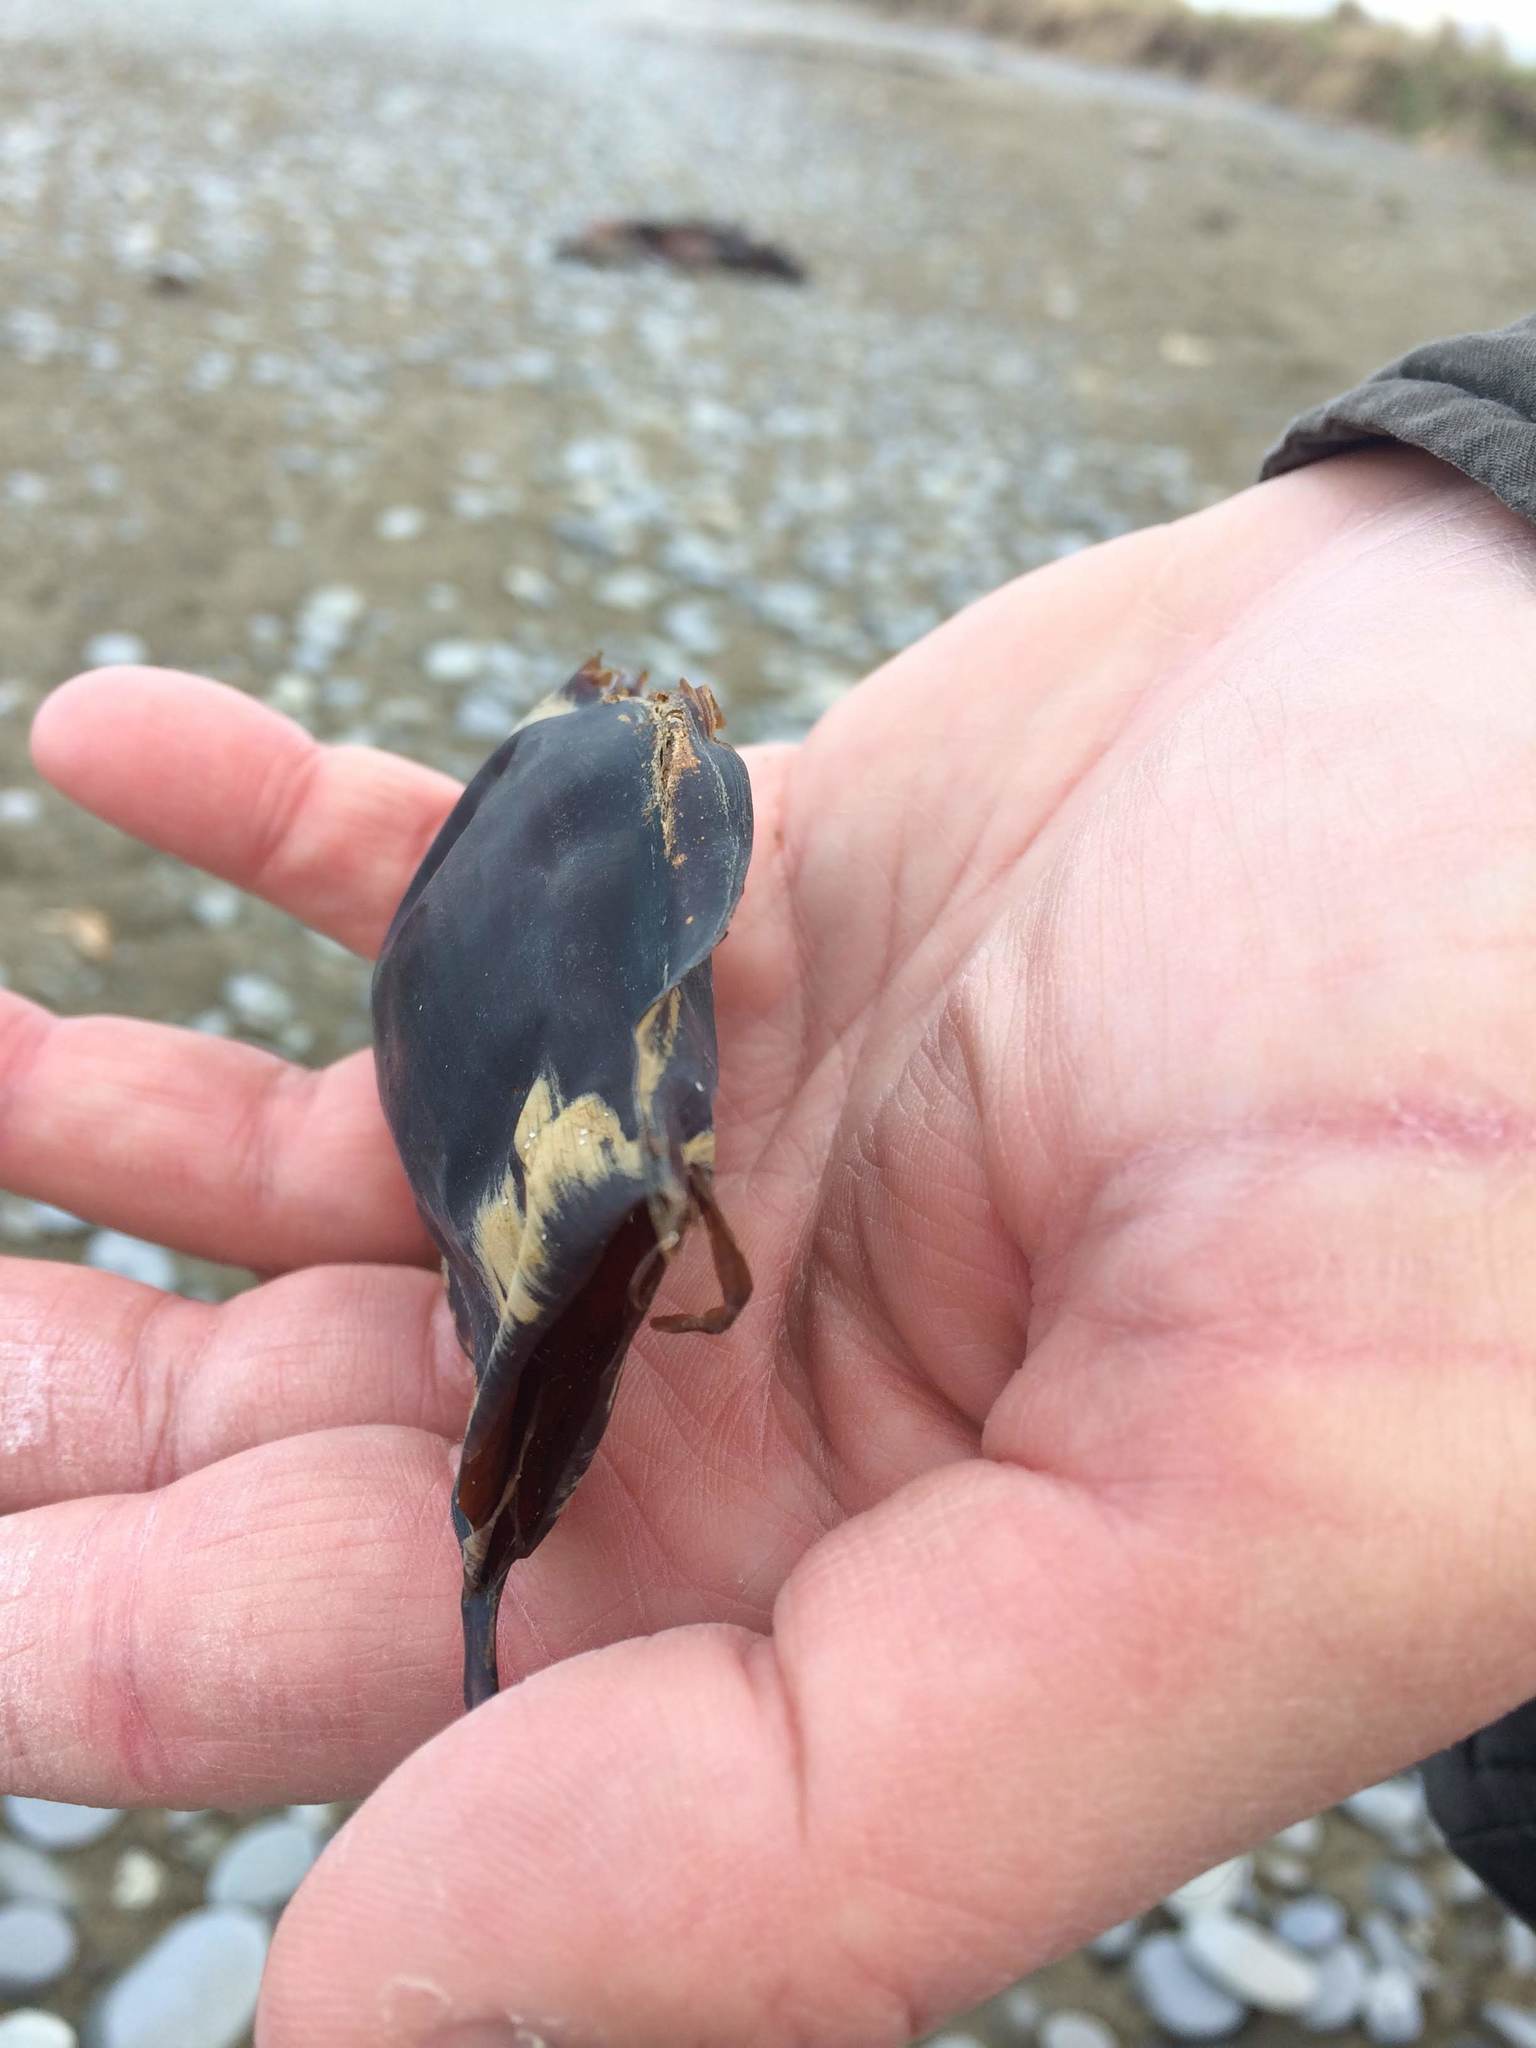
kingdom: Animalia
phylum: Chordata
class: Elasmobranchii
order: Rajiformes
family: Rajidae
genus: Zearaja
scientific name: Zearaja nasuta
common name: New zealand rough skate
